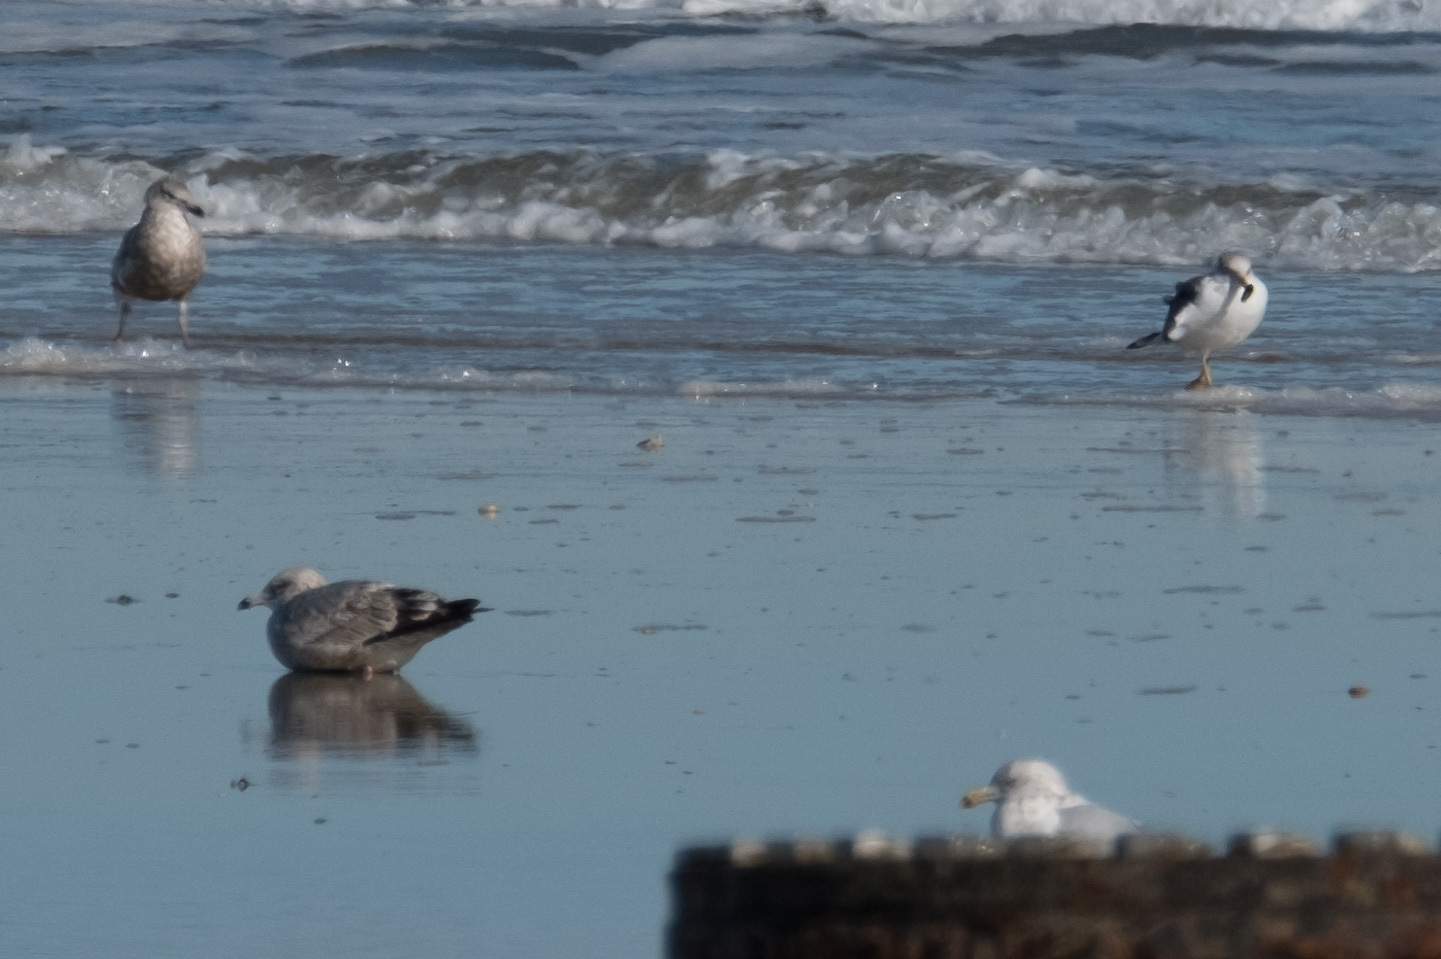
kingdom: Animalia
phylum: Chordata
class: Aves
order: Charadriiformes
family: Laridae
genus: Larus
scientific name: Larus fuscus
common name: Lesser black-backed gull
